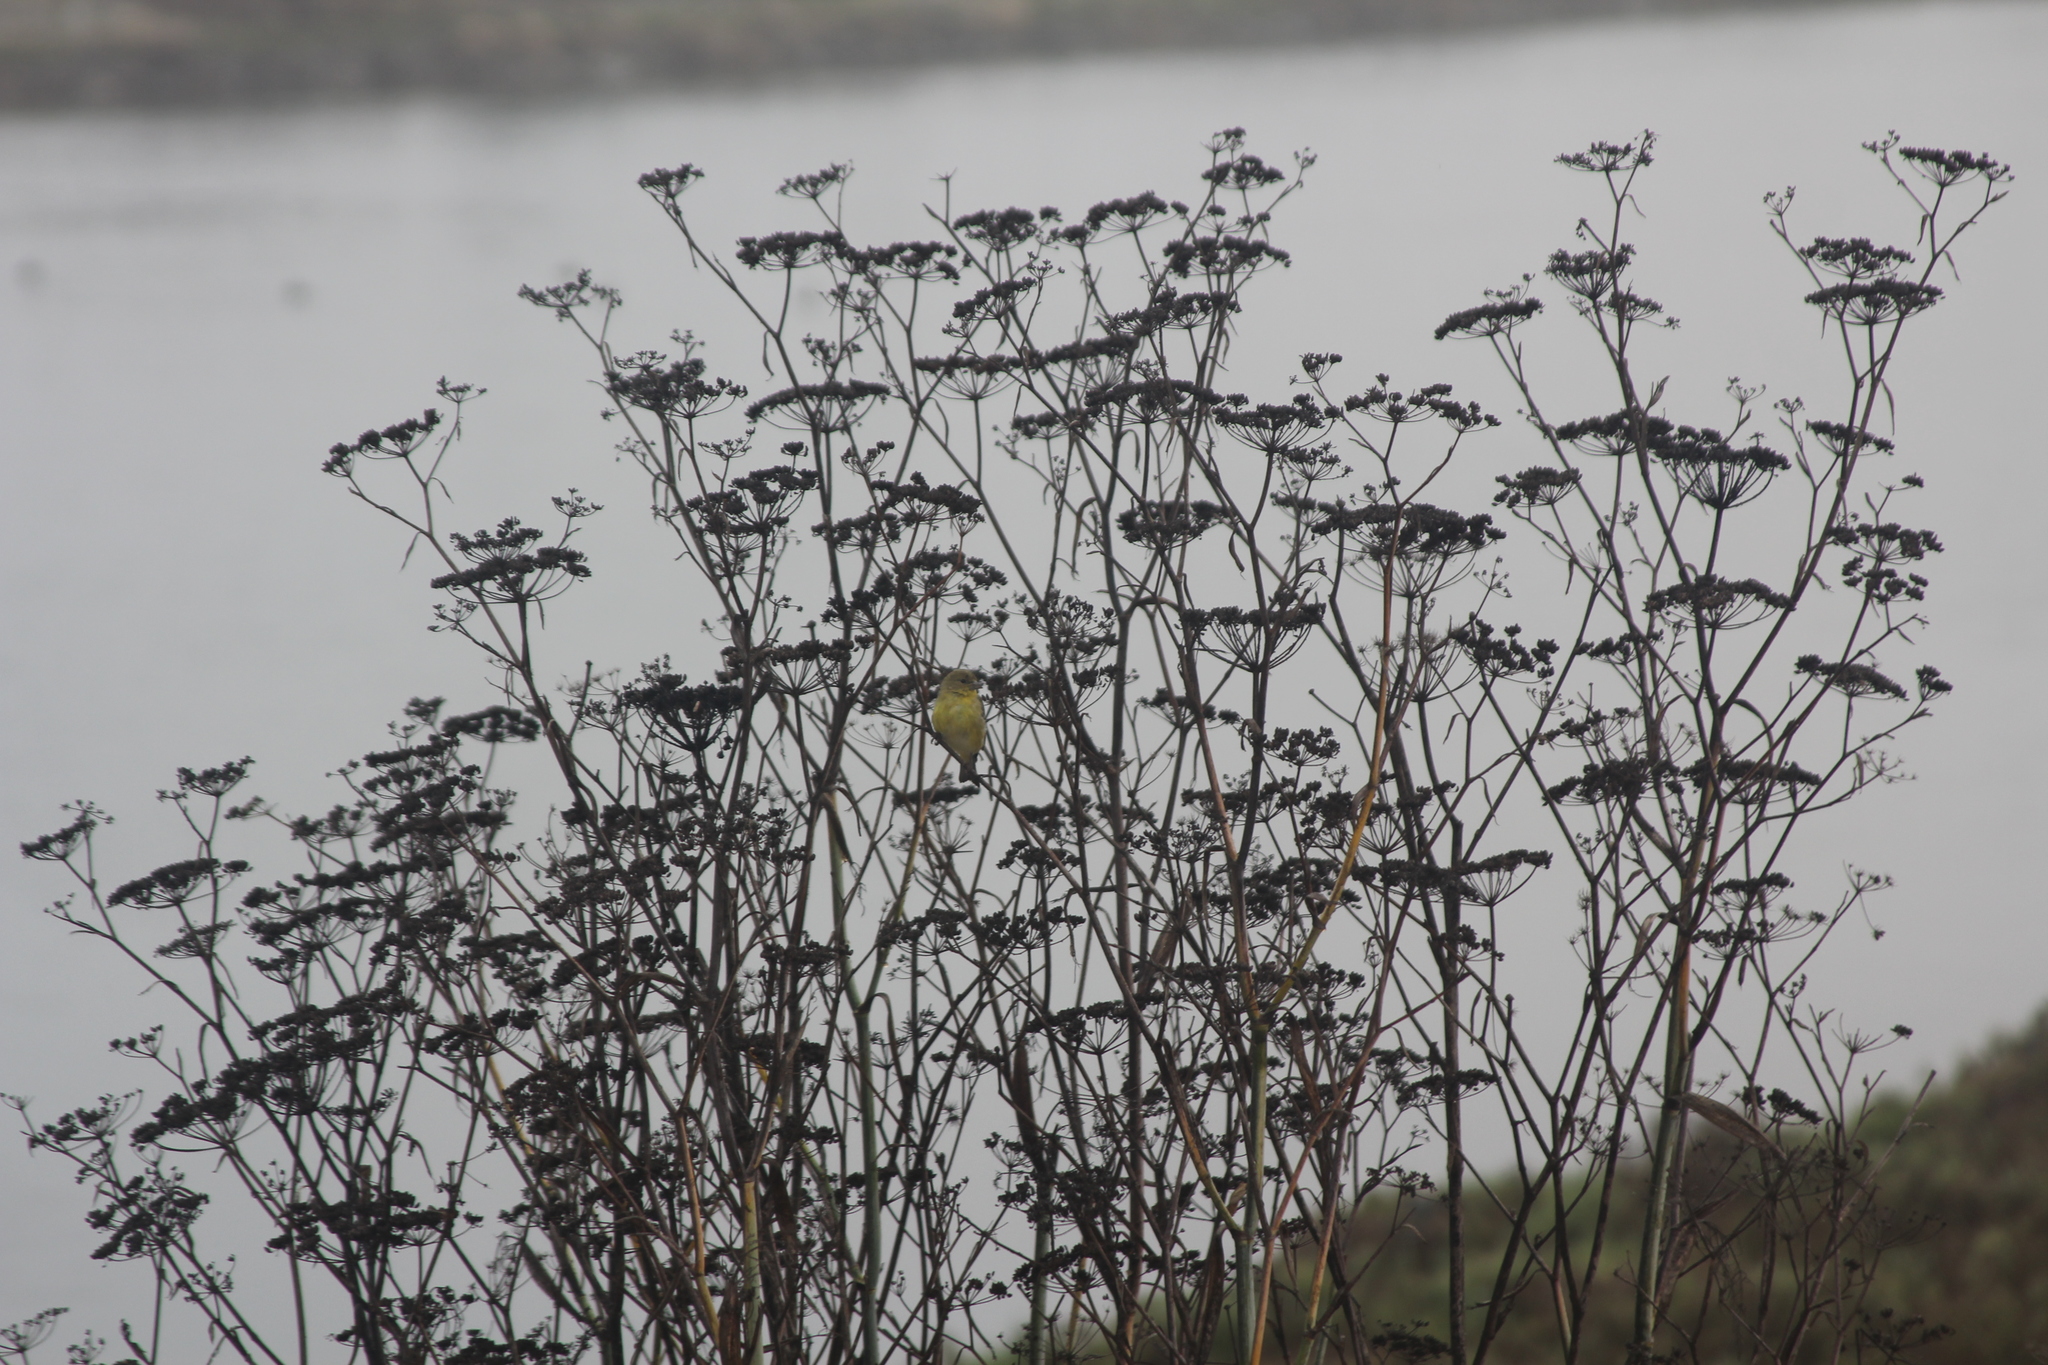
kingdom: Plantae
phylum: Tracheophyta
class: Magnoliopsida
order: Apiales
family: Apiaceae
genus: Foeniculum
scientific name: Foeniculum vulgare
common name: Fennel
